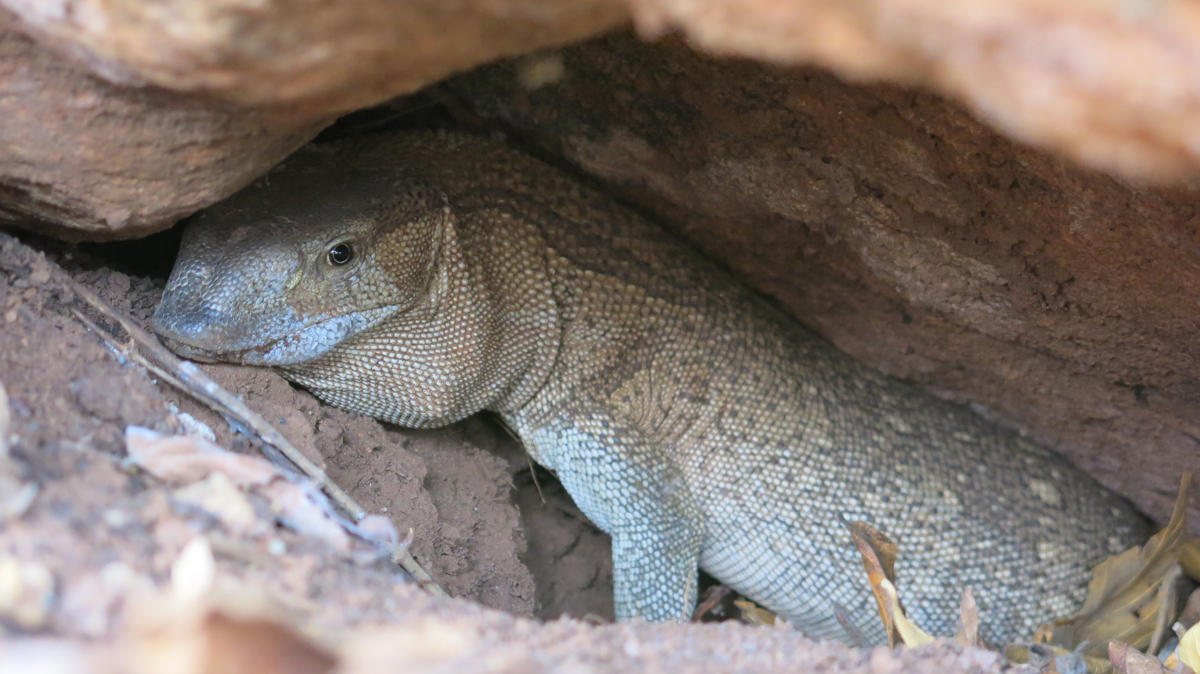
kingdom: Animalia
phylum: Chordata
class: Squamata
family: Varanidae
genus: Varanus
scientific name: Varanus albigularis
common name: White-throated monitor
